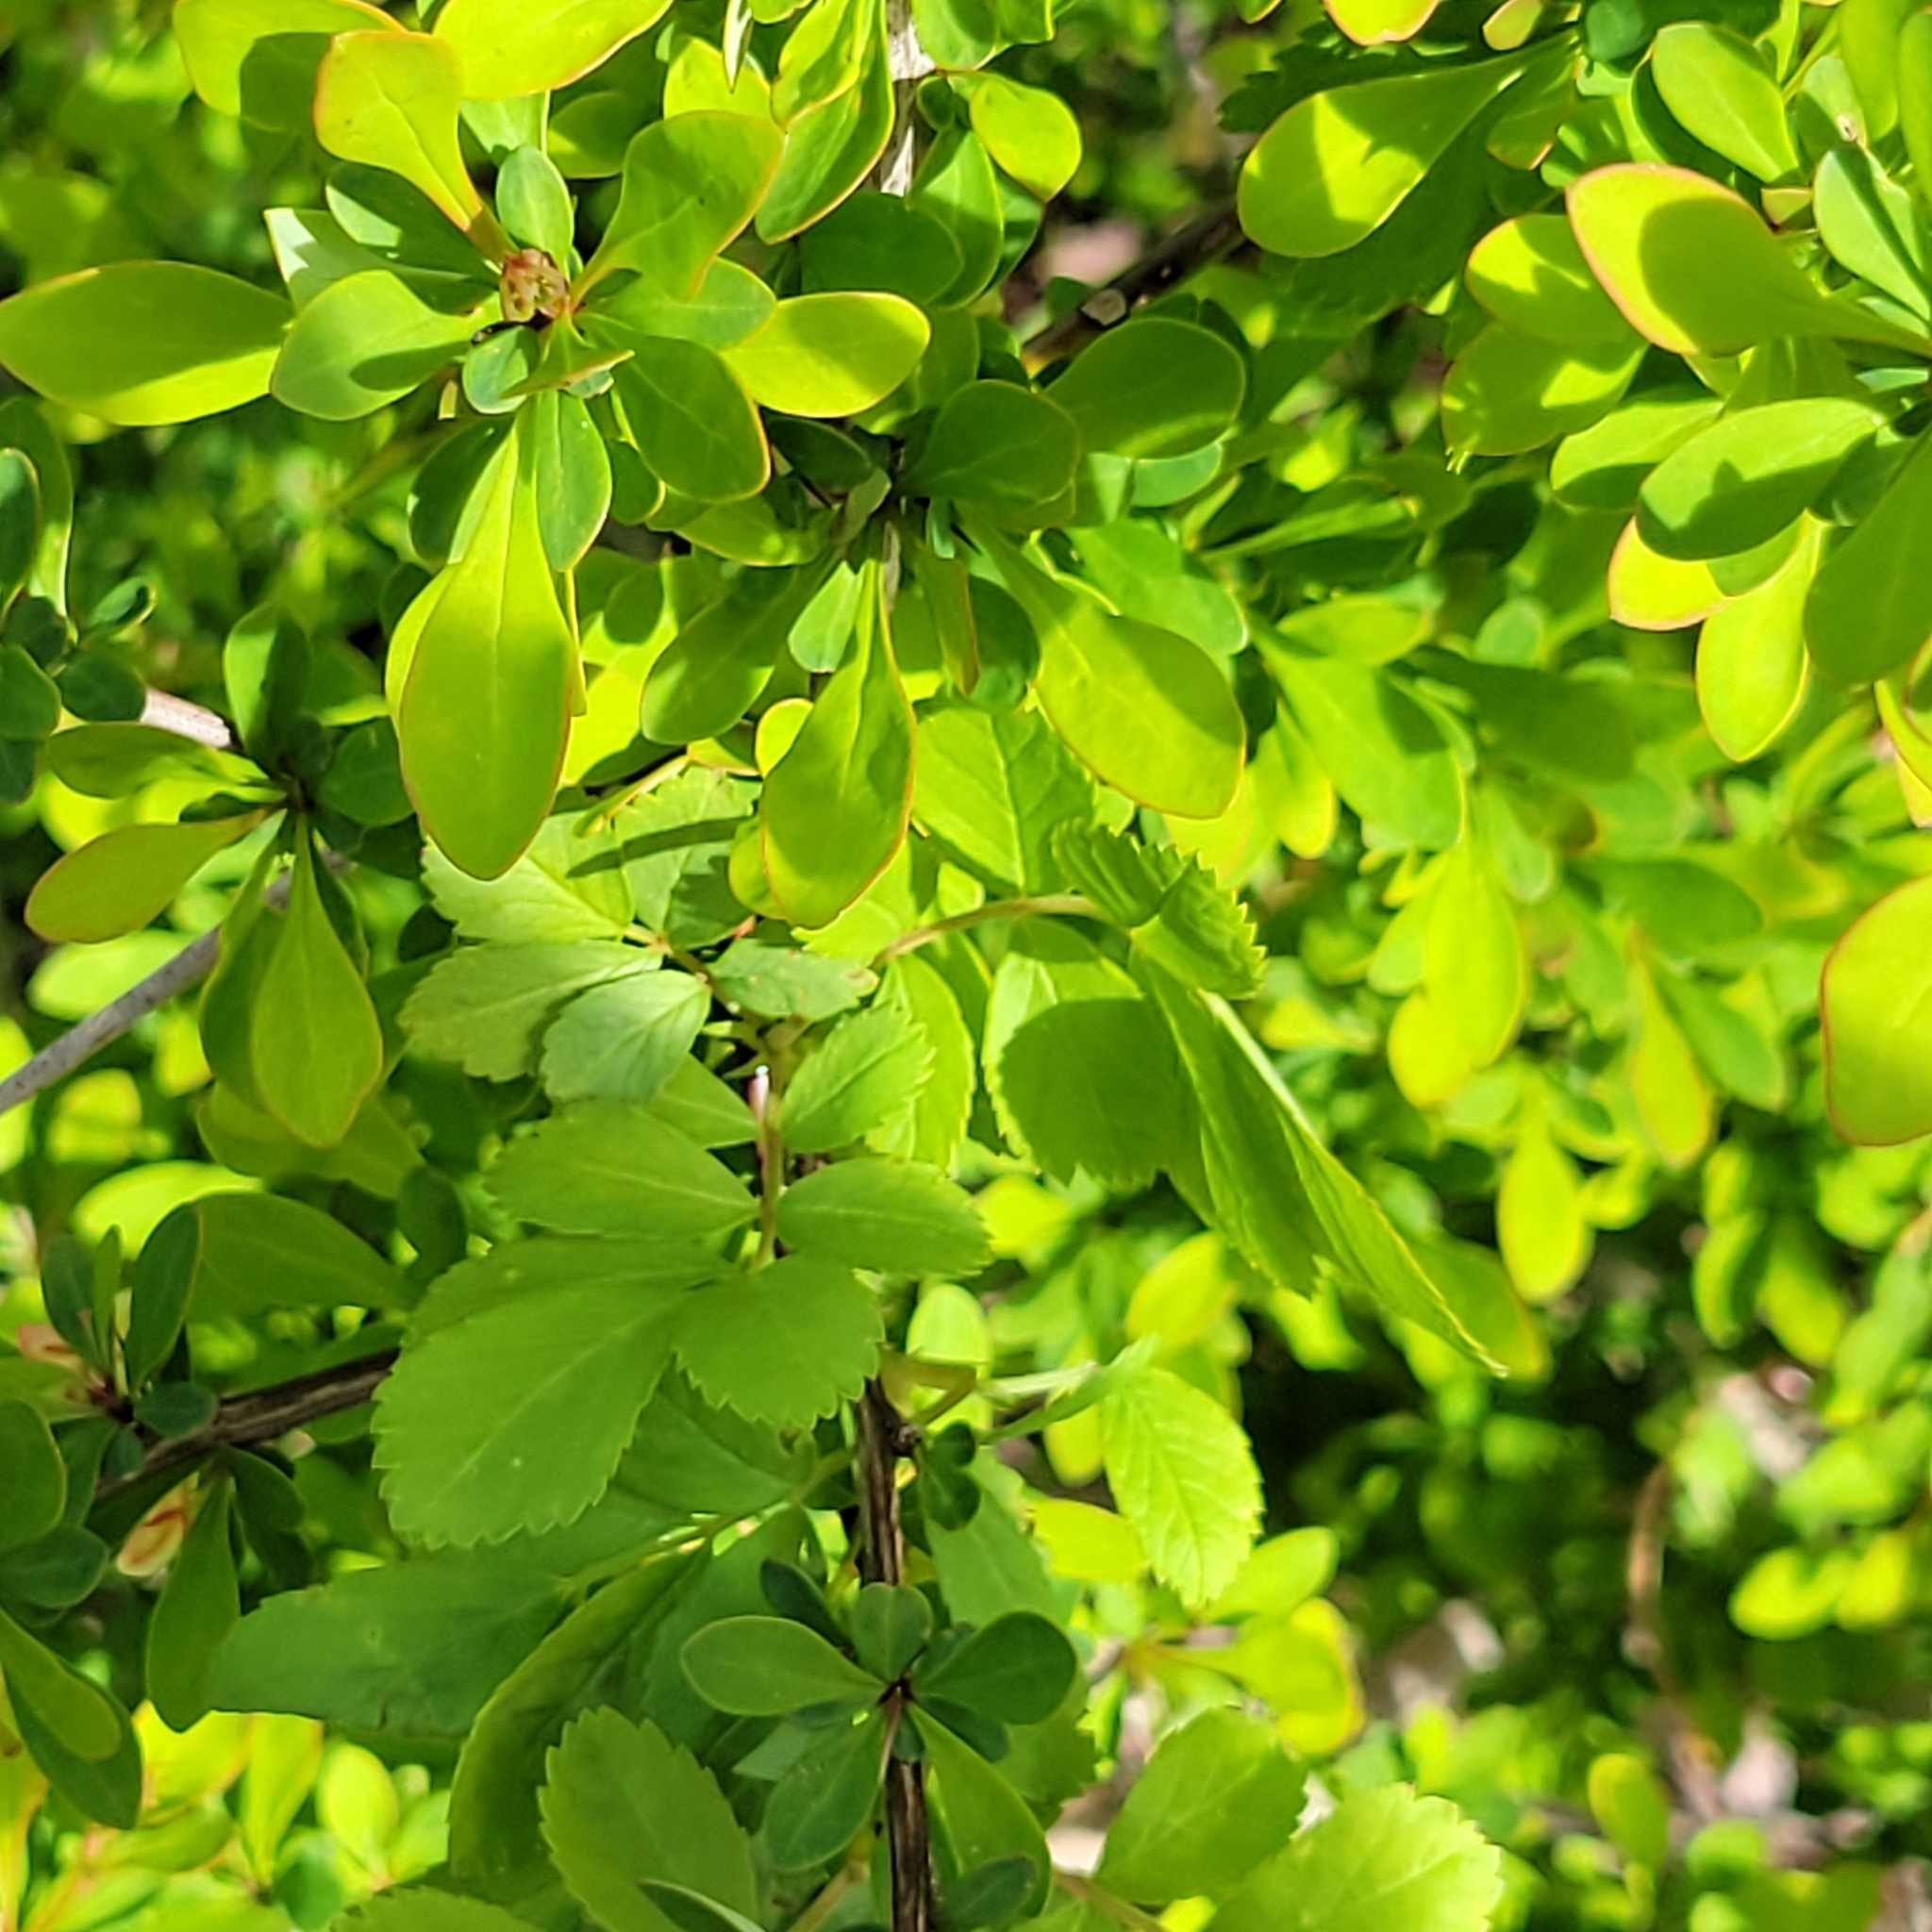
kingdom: Plantae
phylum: Tracheophyta
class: Magnoliopsida
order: Ranunculales
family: Berberidaceae
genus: Berberis
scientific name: Berberis thunbergii
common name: Japanese barberry
